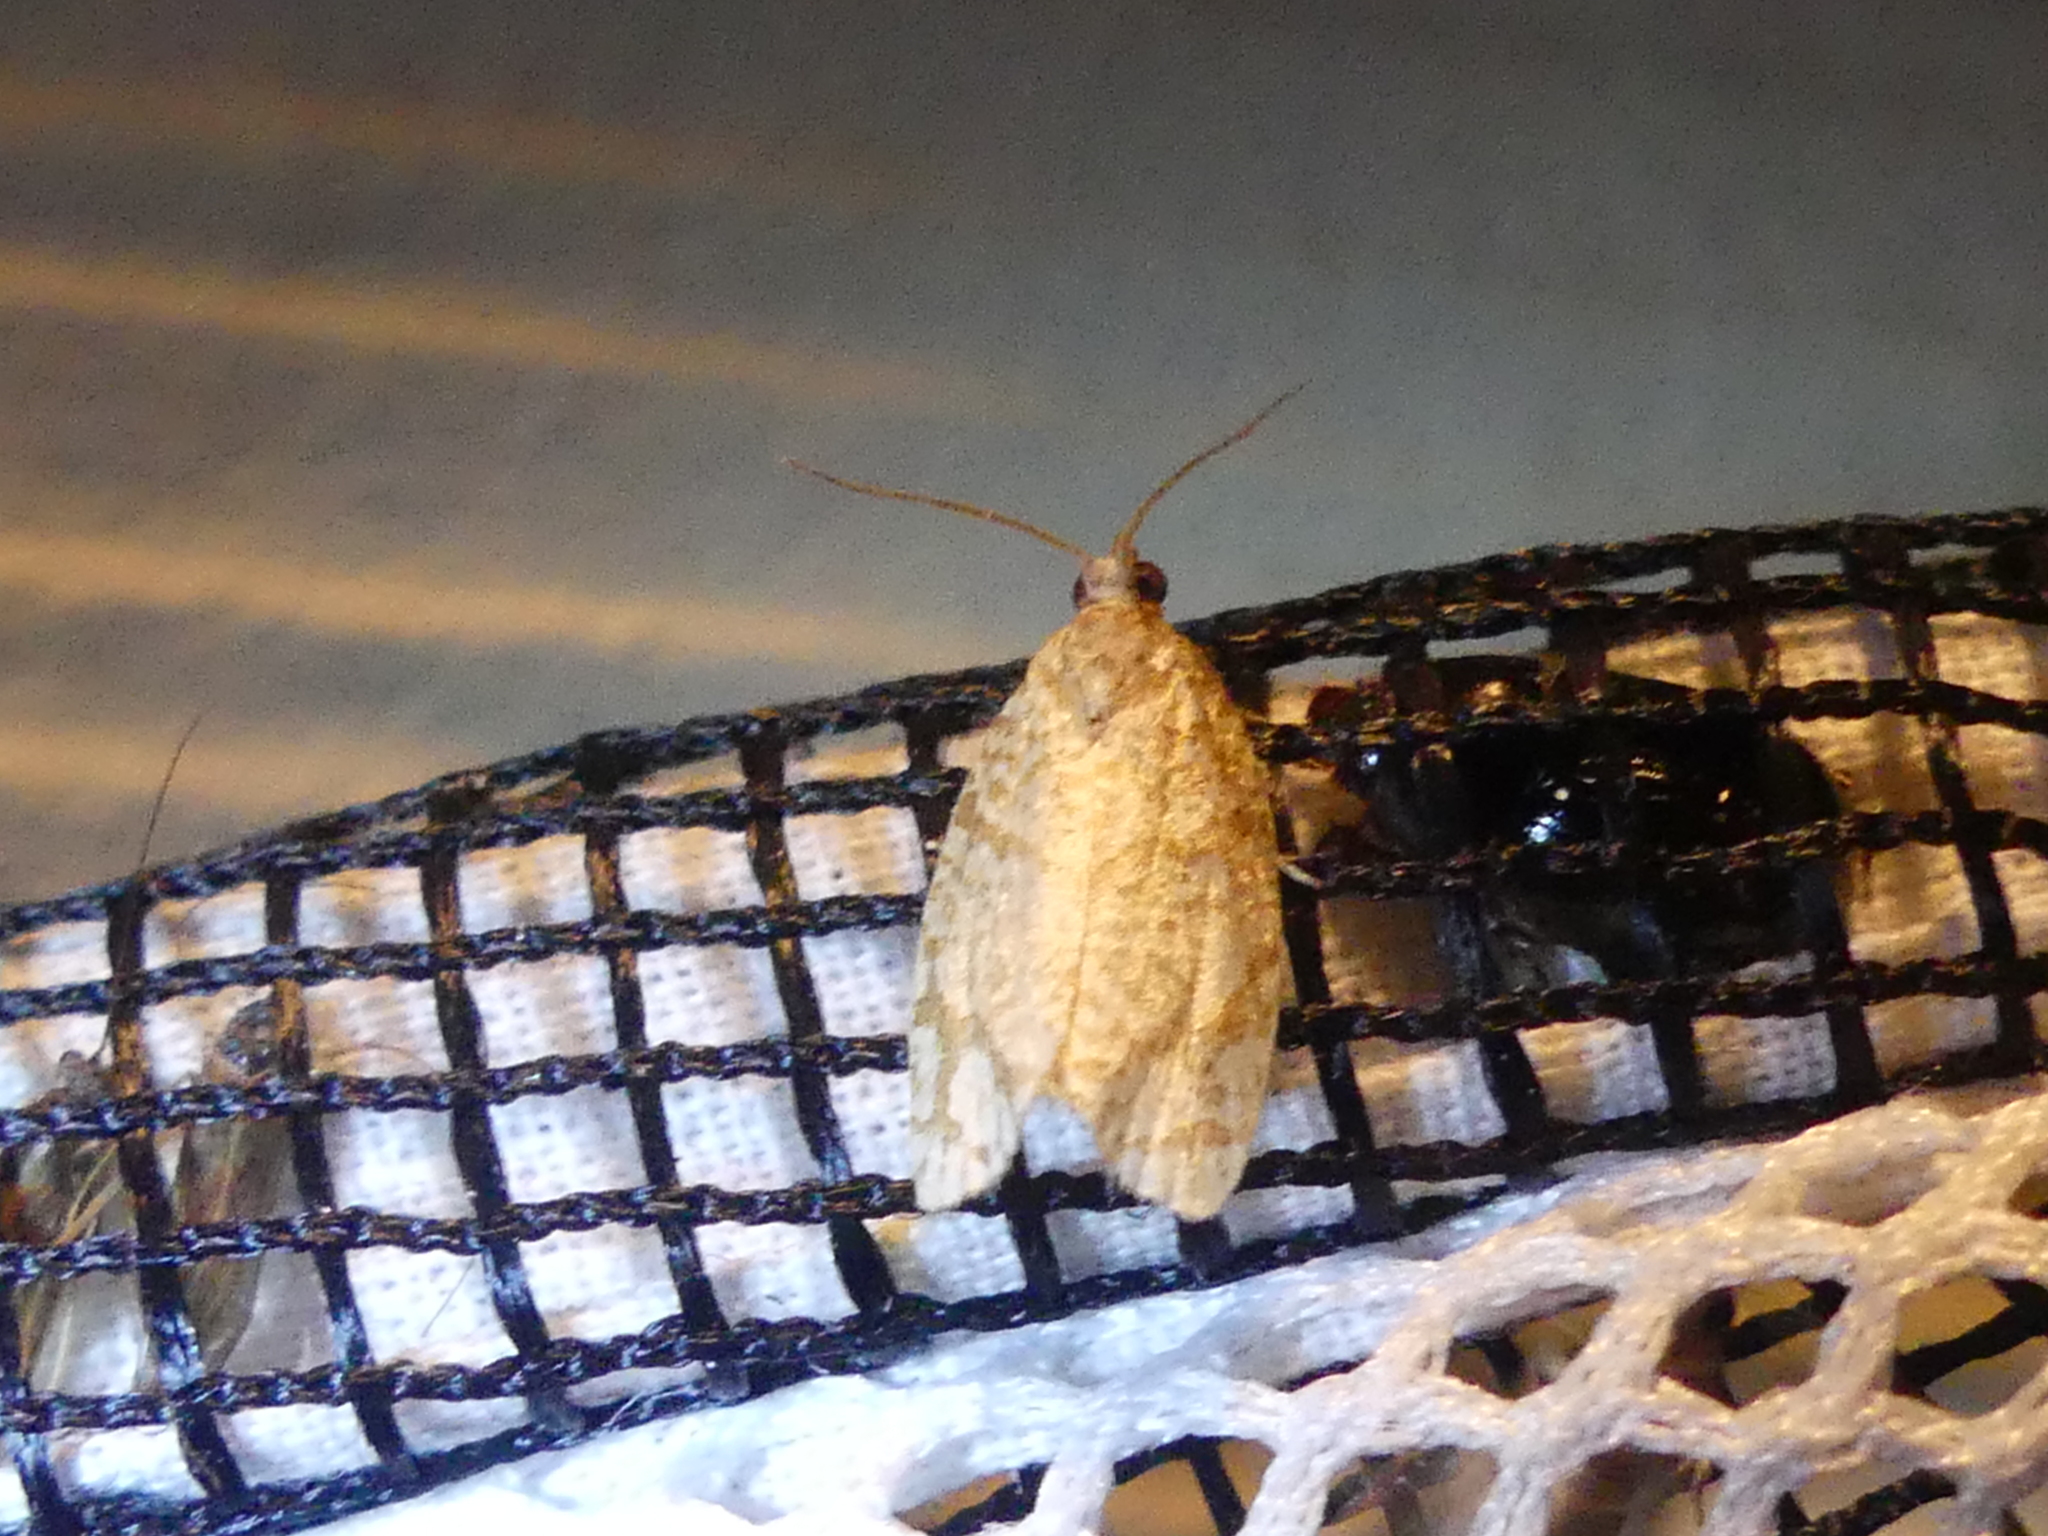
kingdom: Animalia
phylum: Arthropoda
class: Insecta
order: Lepidoptera
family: Tortricidae
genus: Argyrotaenia
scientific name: Argyrotaenia quercifoliana
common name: Yellow-winged oak leafroller moth
